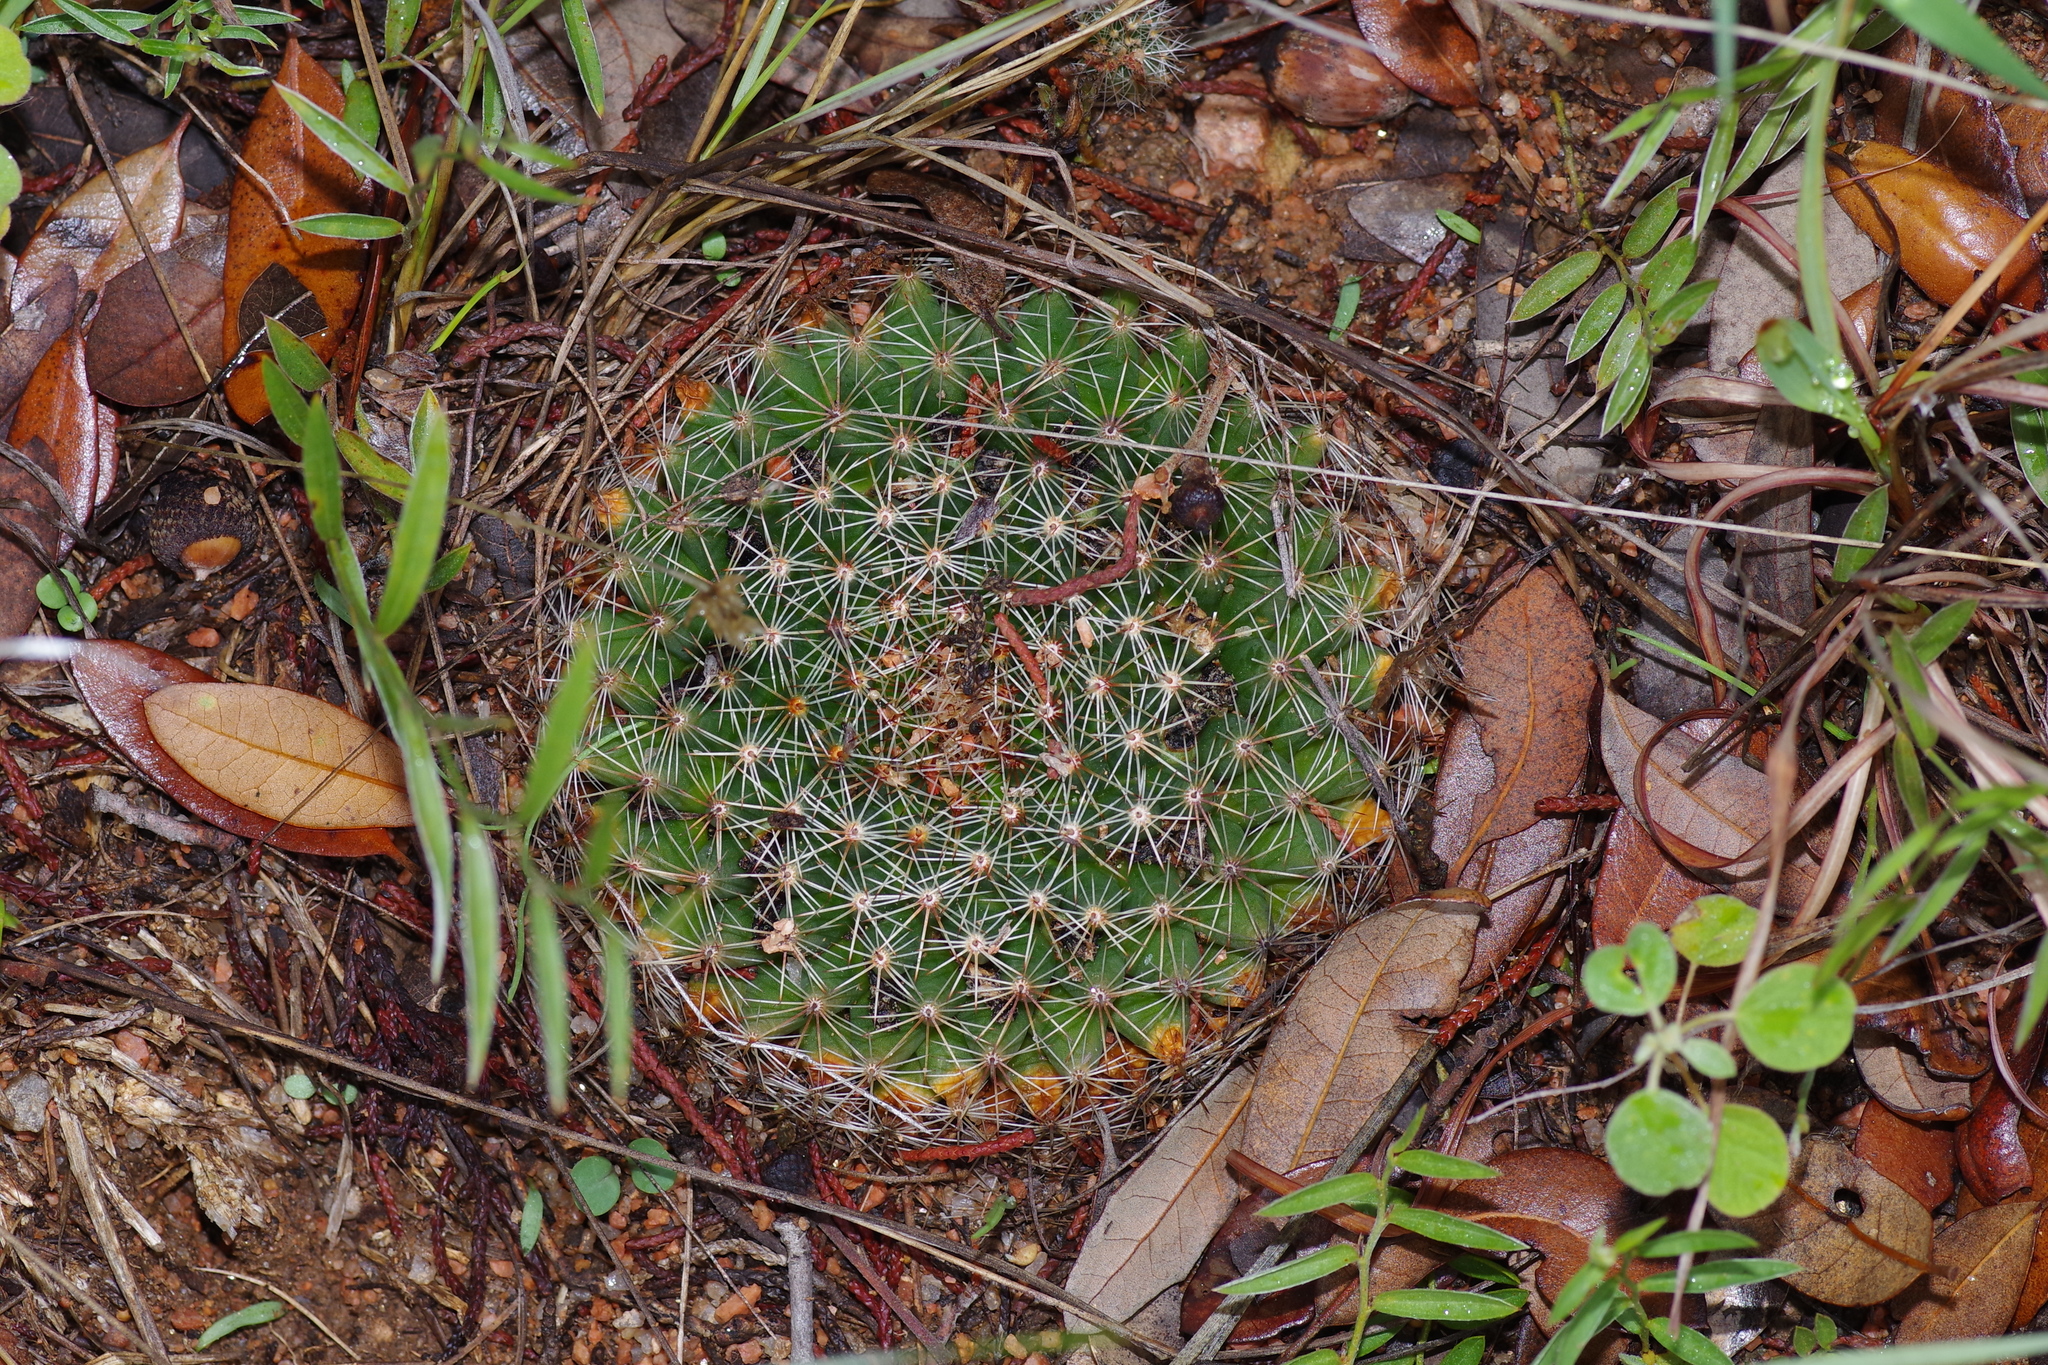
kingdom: Plantae
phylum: Tracheophyta
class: Magnoliopsida
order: Caryophyllales
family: Cactaceae
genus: Mammillaria
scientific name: Mammillaria heyderi
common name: Little nipple cactus
